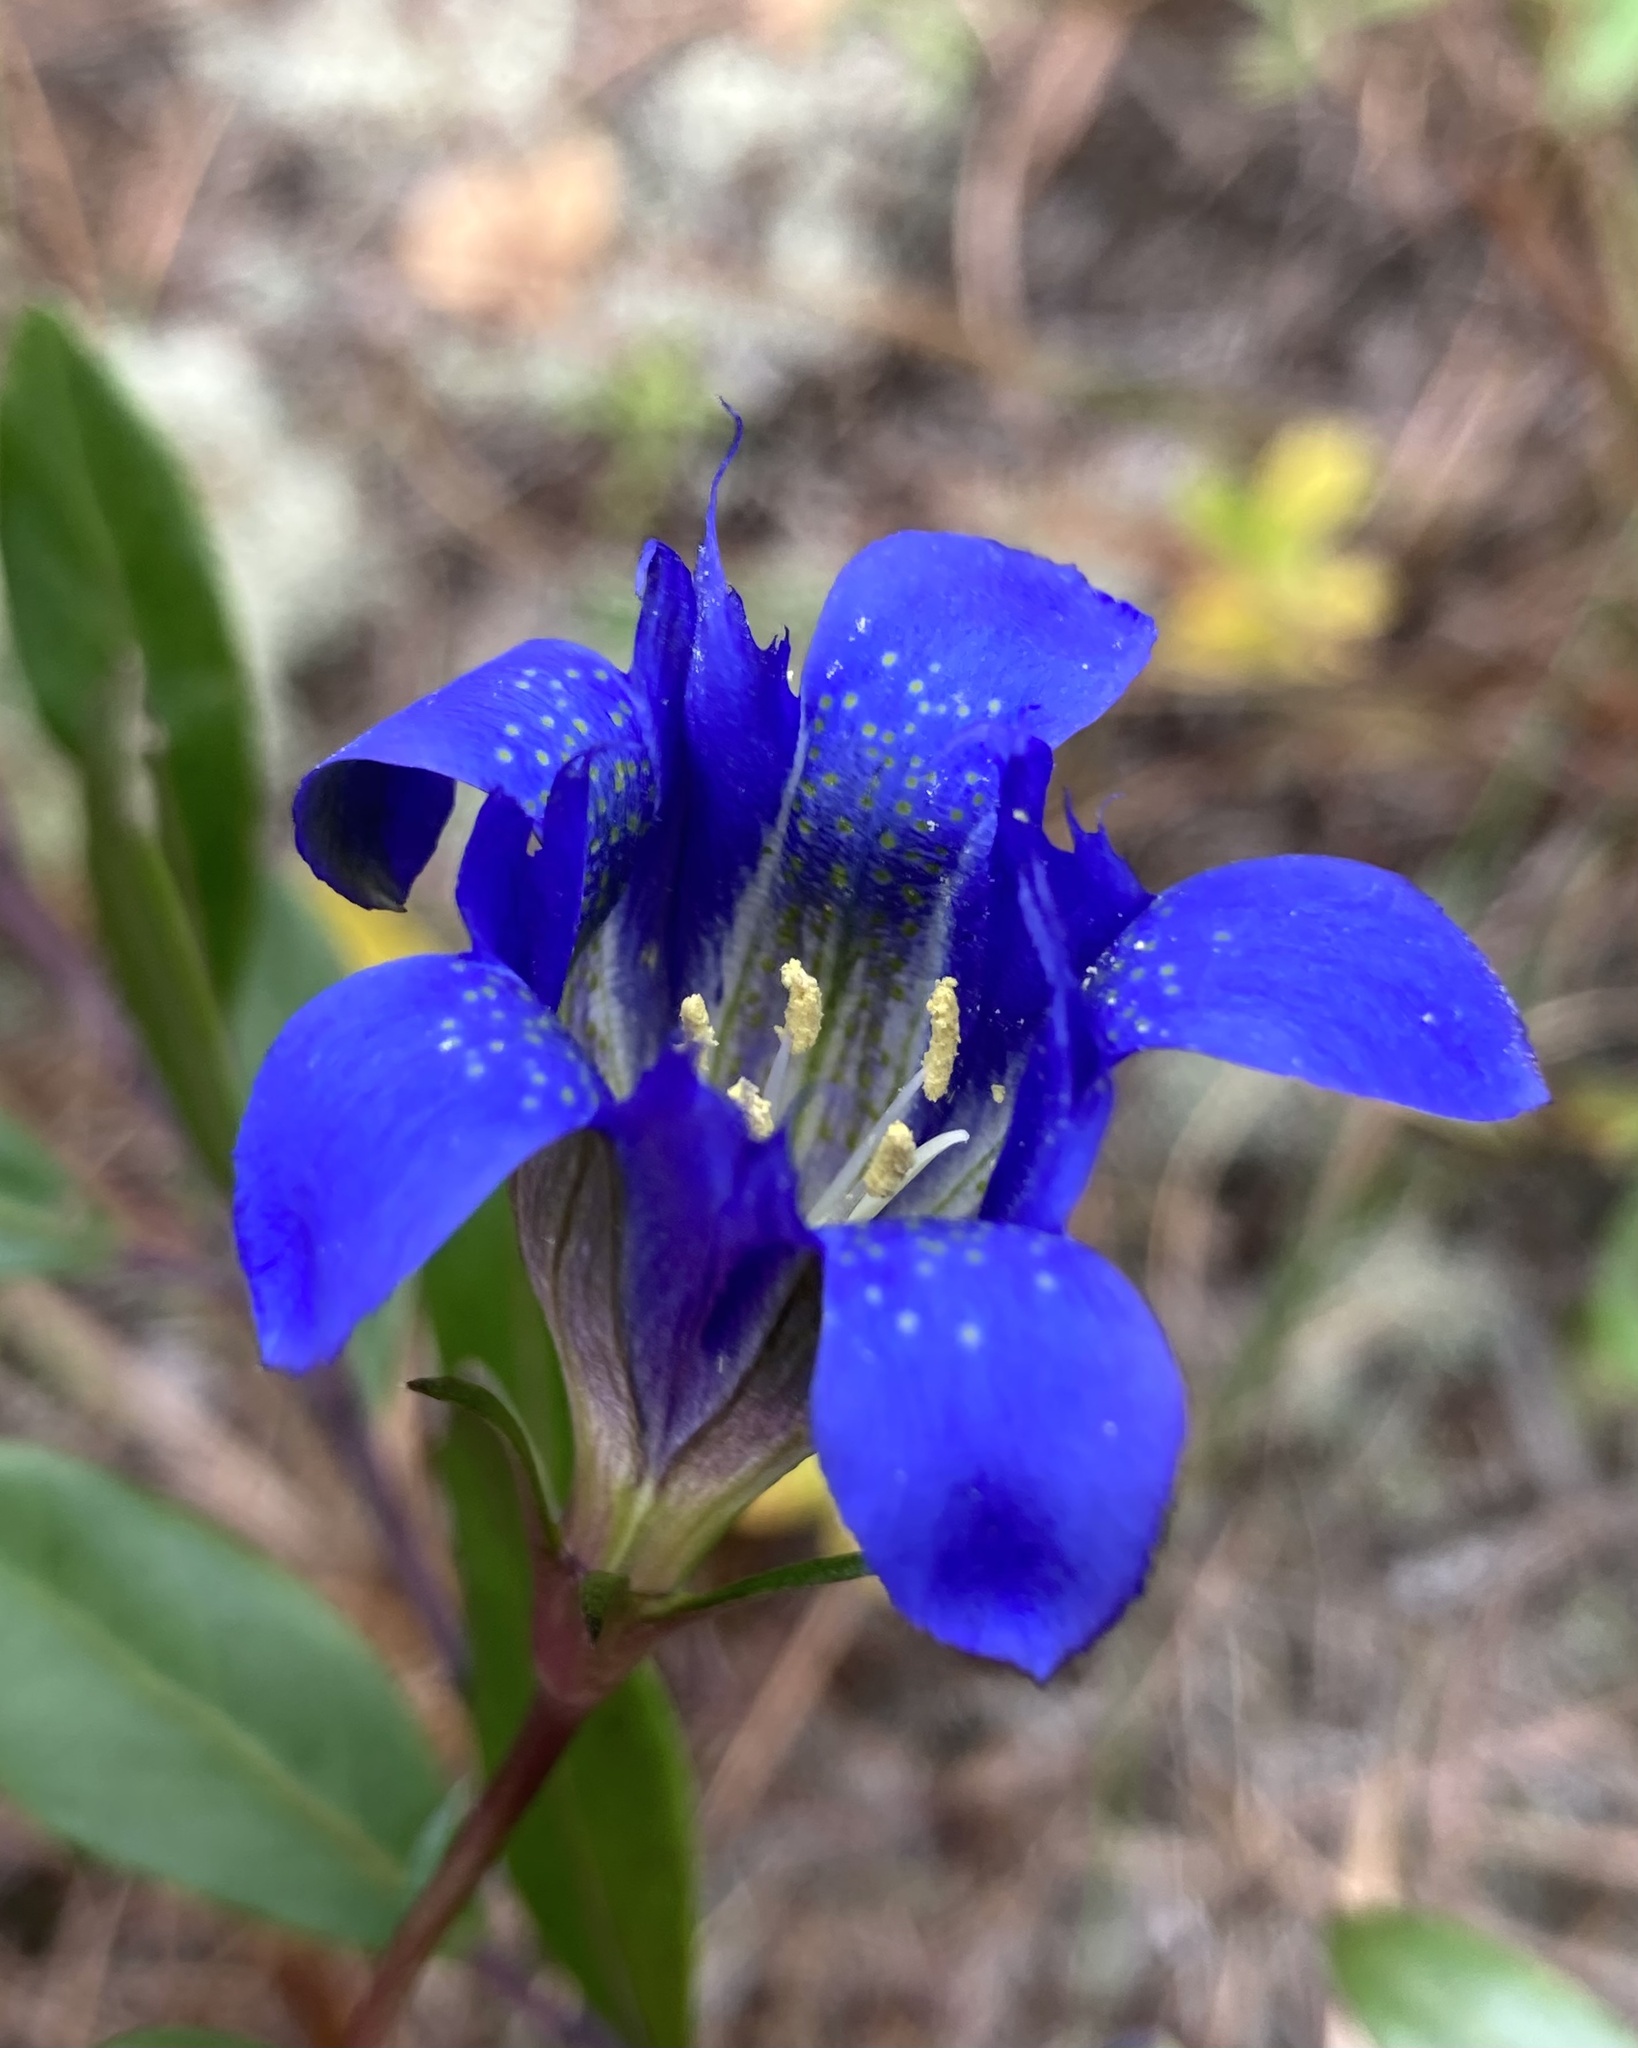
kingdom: Plantae
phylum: Tracheophyta
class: Magnoliopsida
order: Gentianales
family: Gentianaceae
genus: Gentiana
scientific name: Gentiana autumnalis
